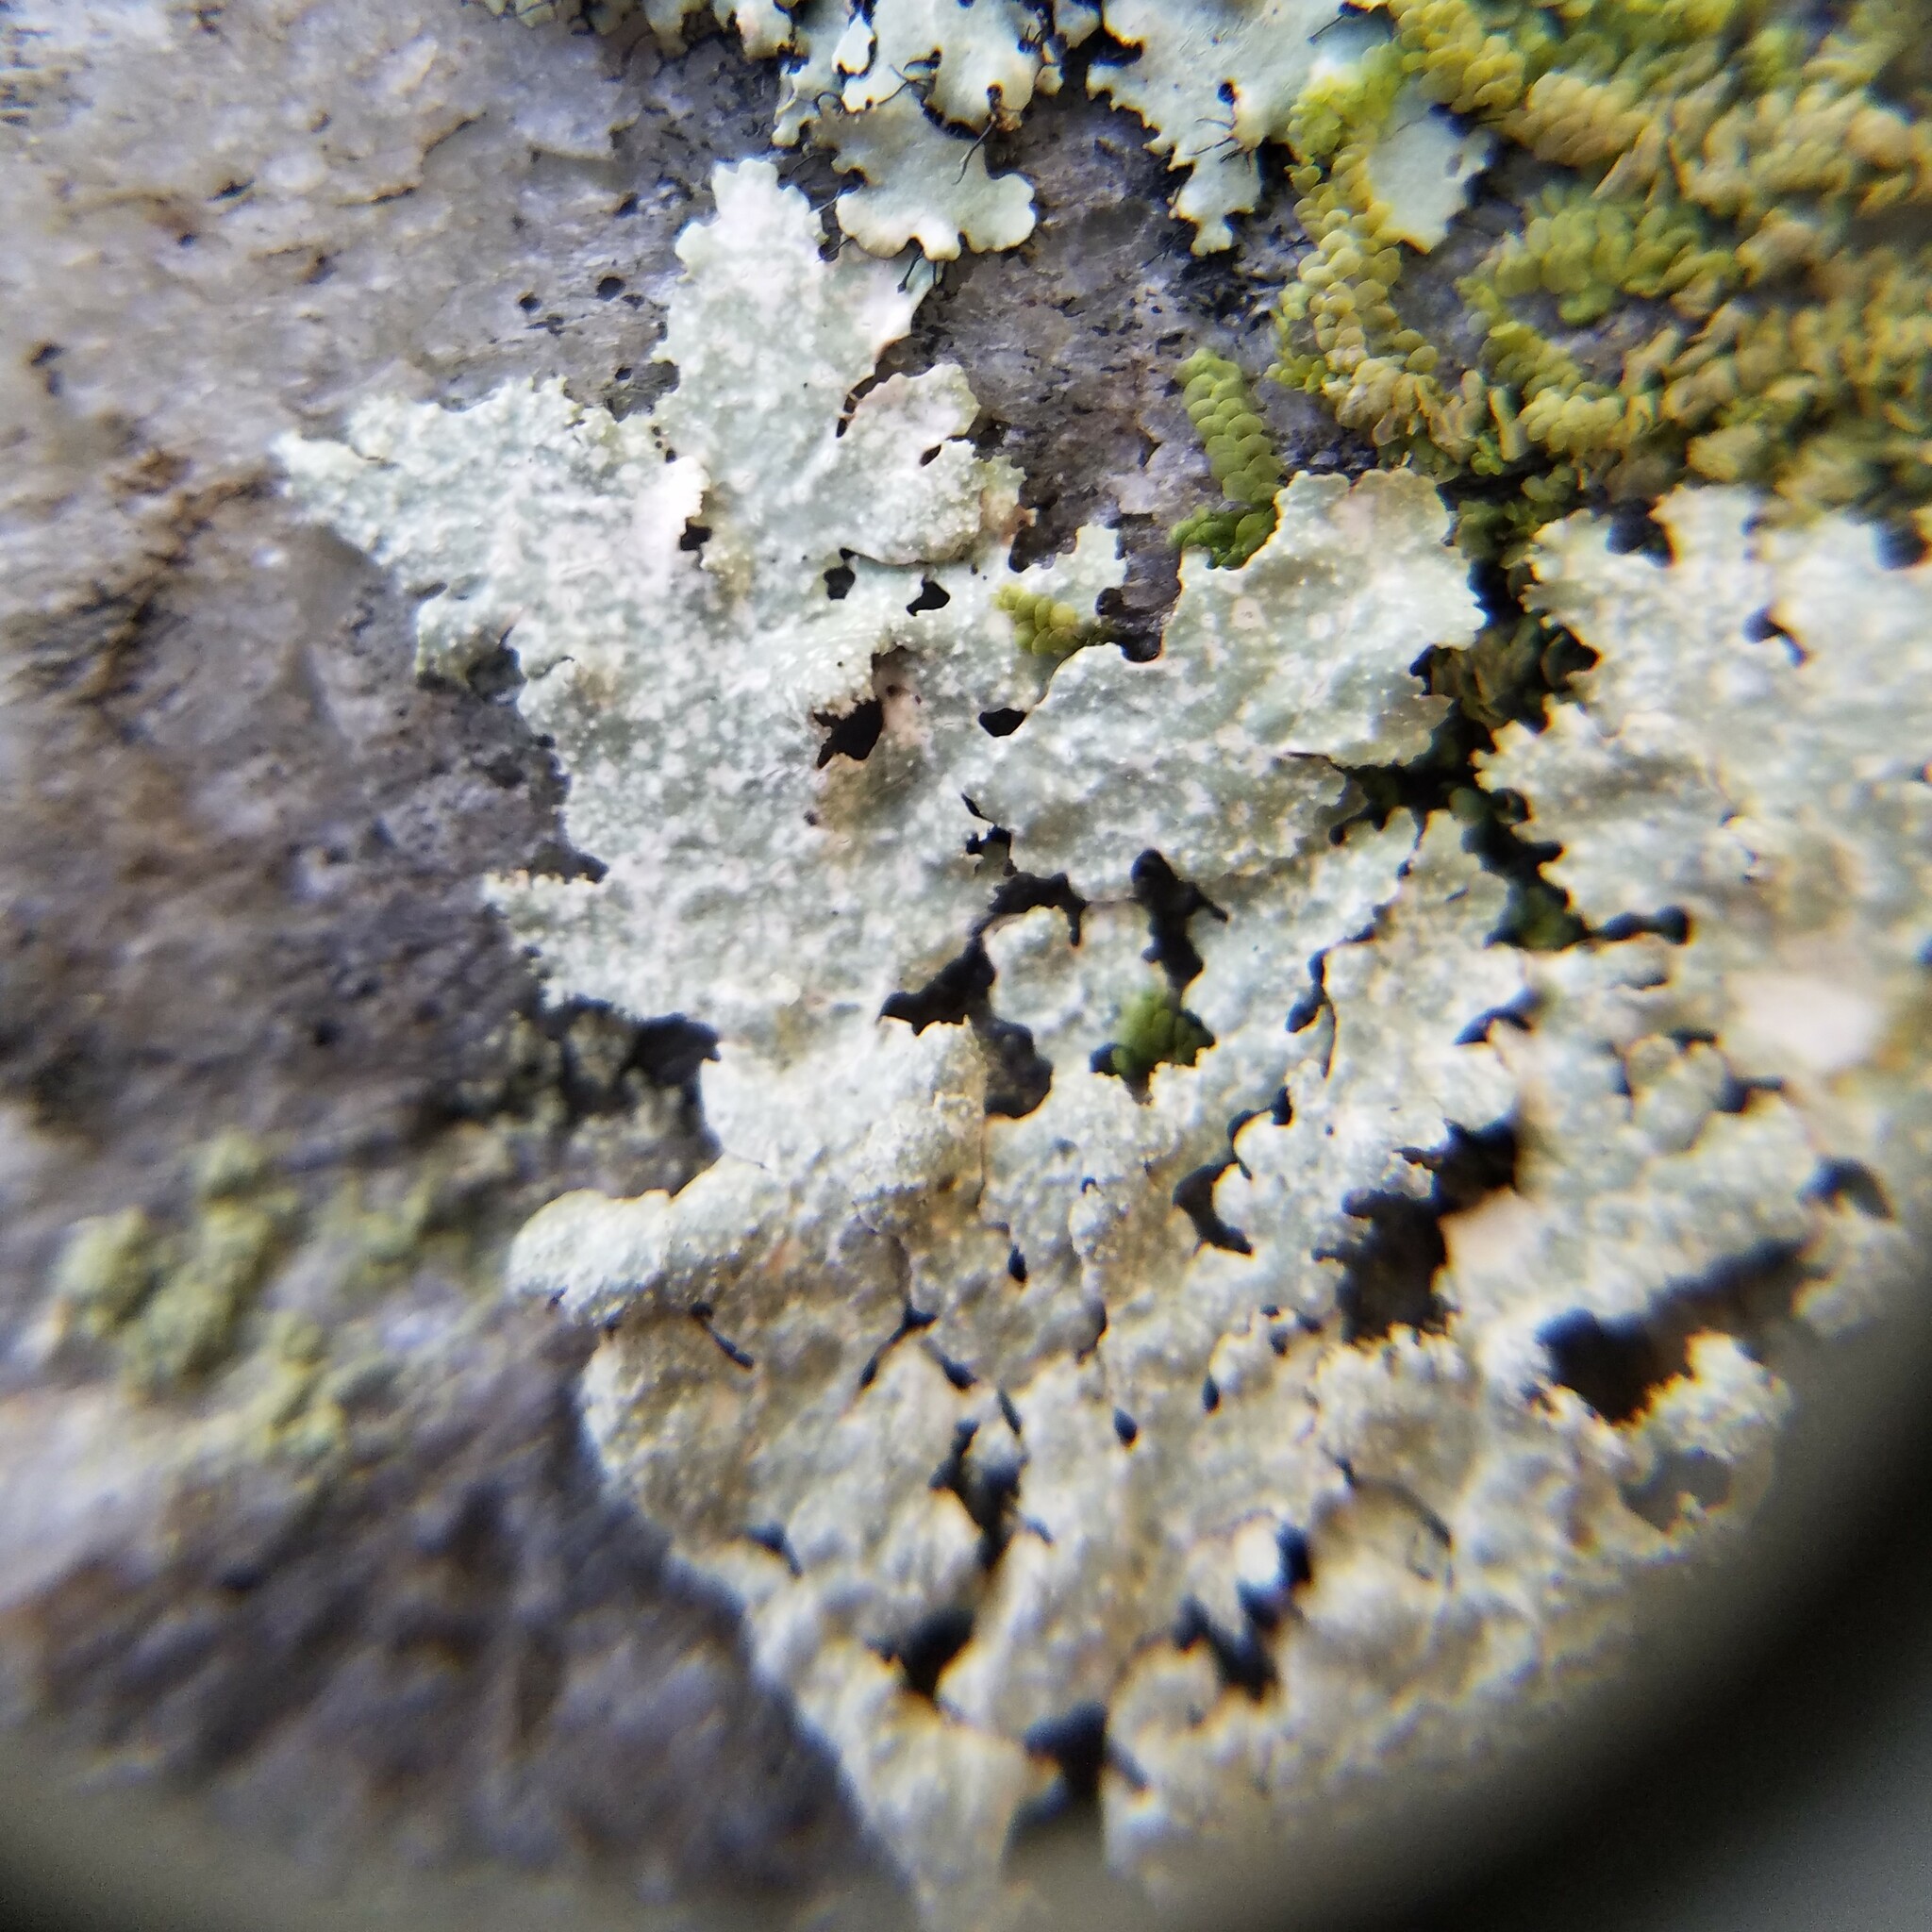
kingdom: Fungi
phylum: Ascomycota
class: Lecanoromycetes
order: Lecanorales
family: Parmeliaceae
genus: Punctelia
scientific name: Punctelia rudecta
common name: Rough speckled shield lichen
